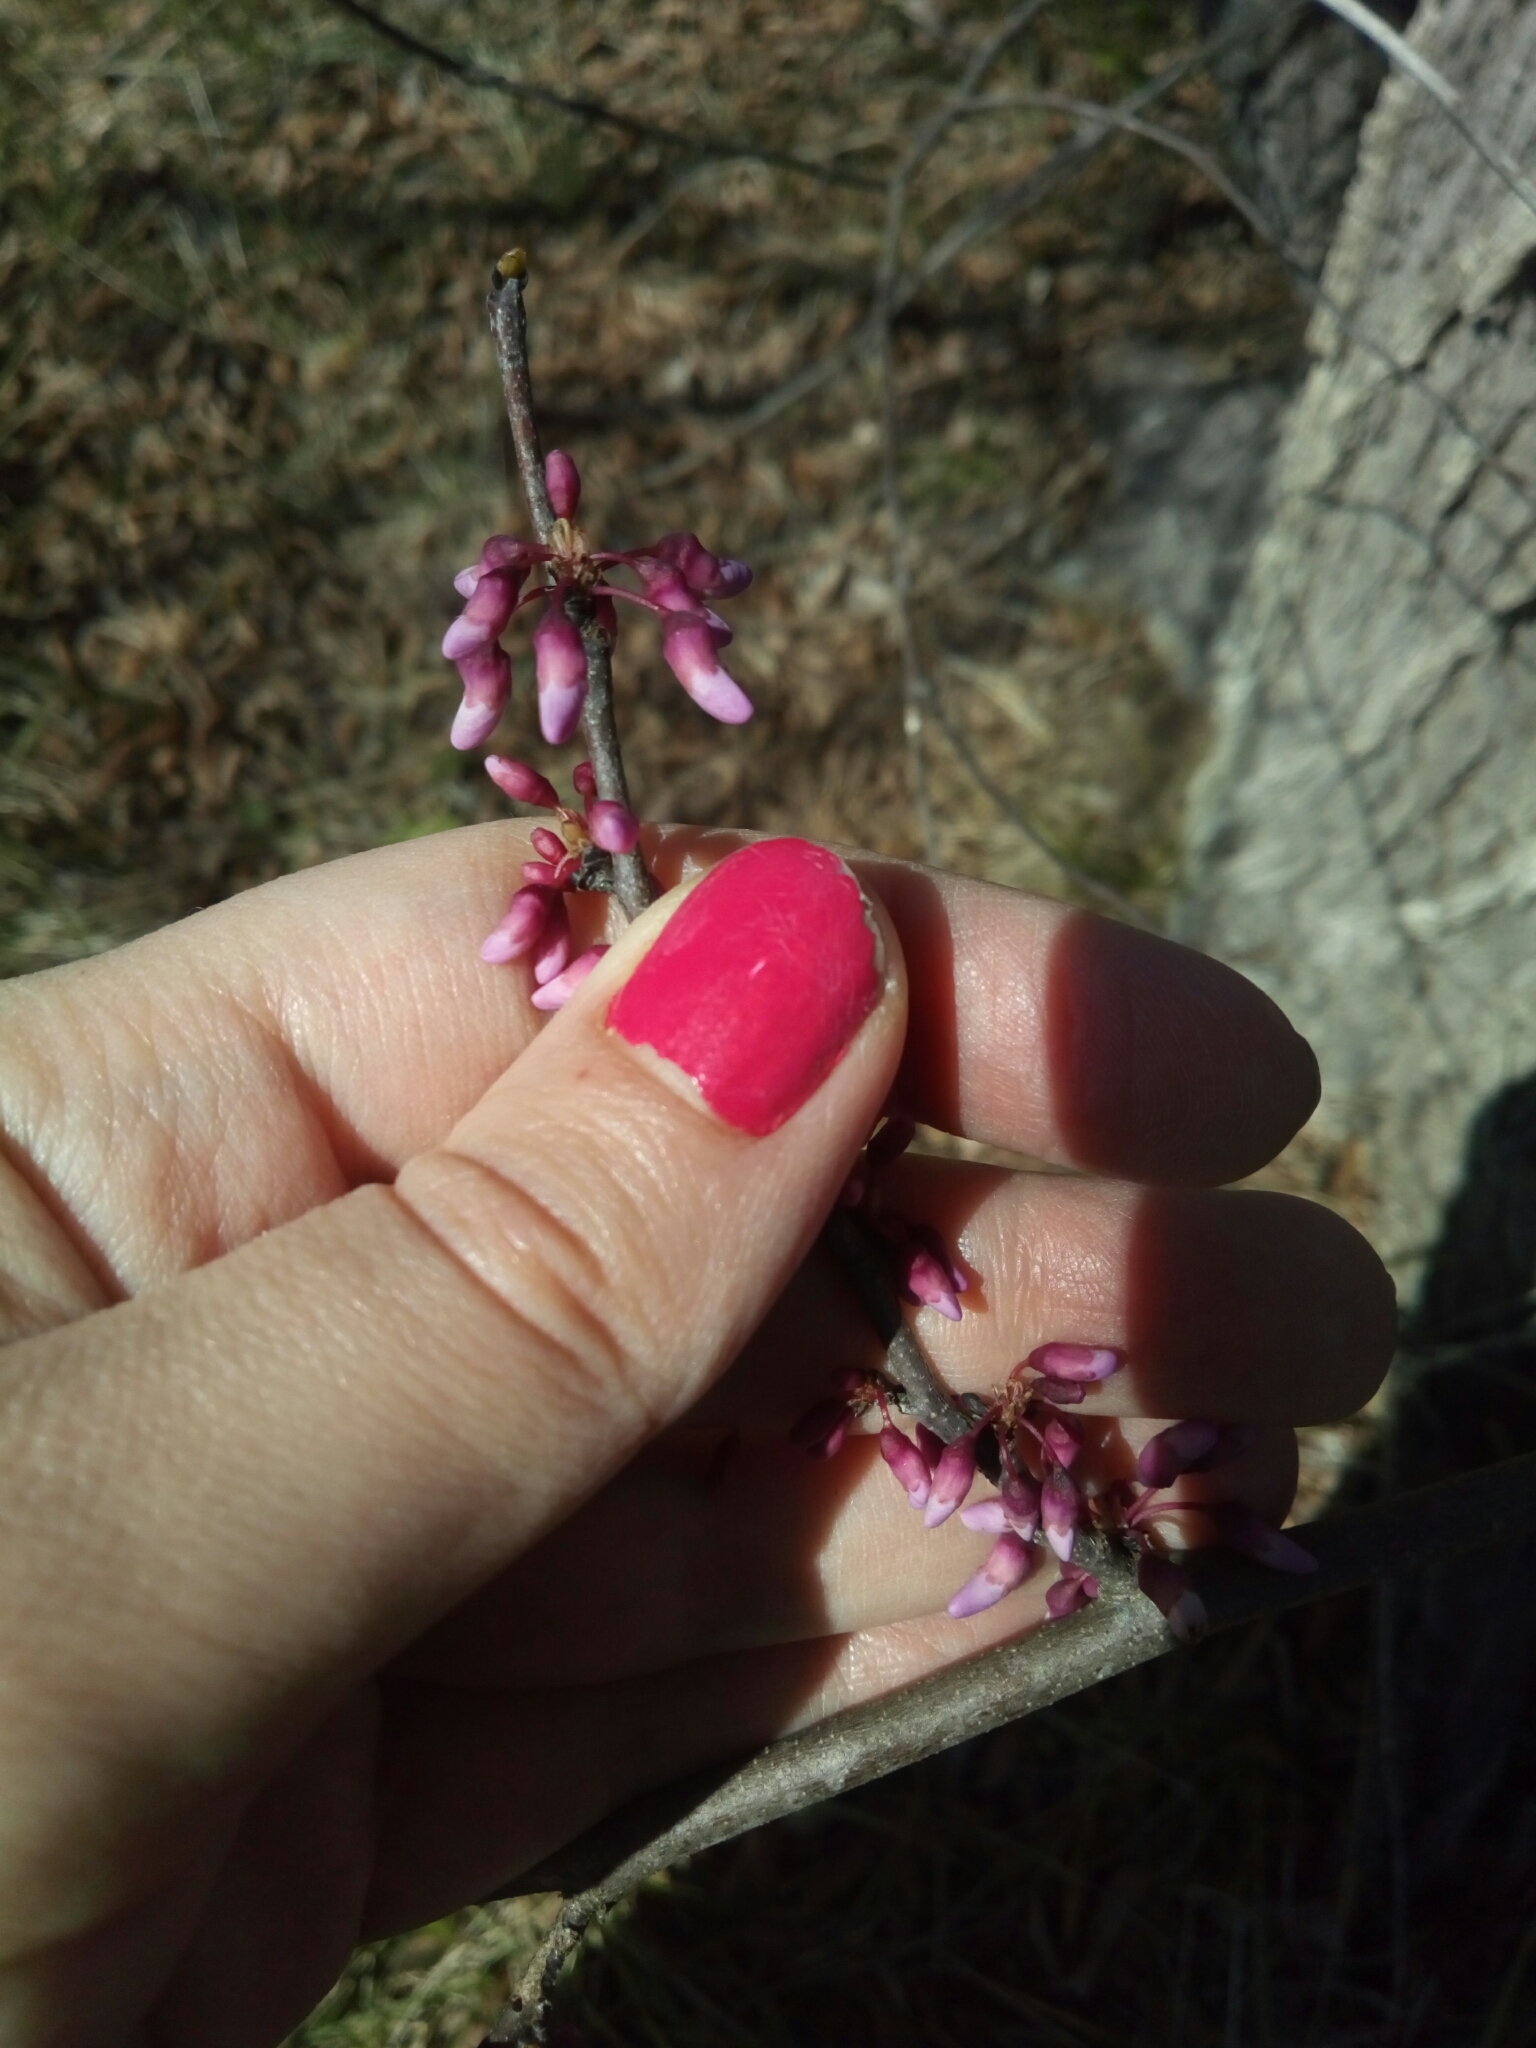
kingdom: Plantae
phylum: Tracheophyta
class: Magnoliopsida
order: Fabales
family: Fabaceae
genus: Cercis
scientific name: Cercis canadensis
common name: Eastern redbud
